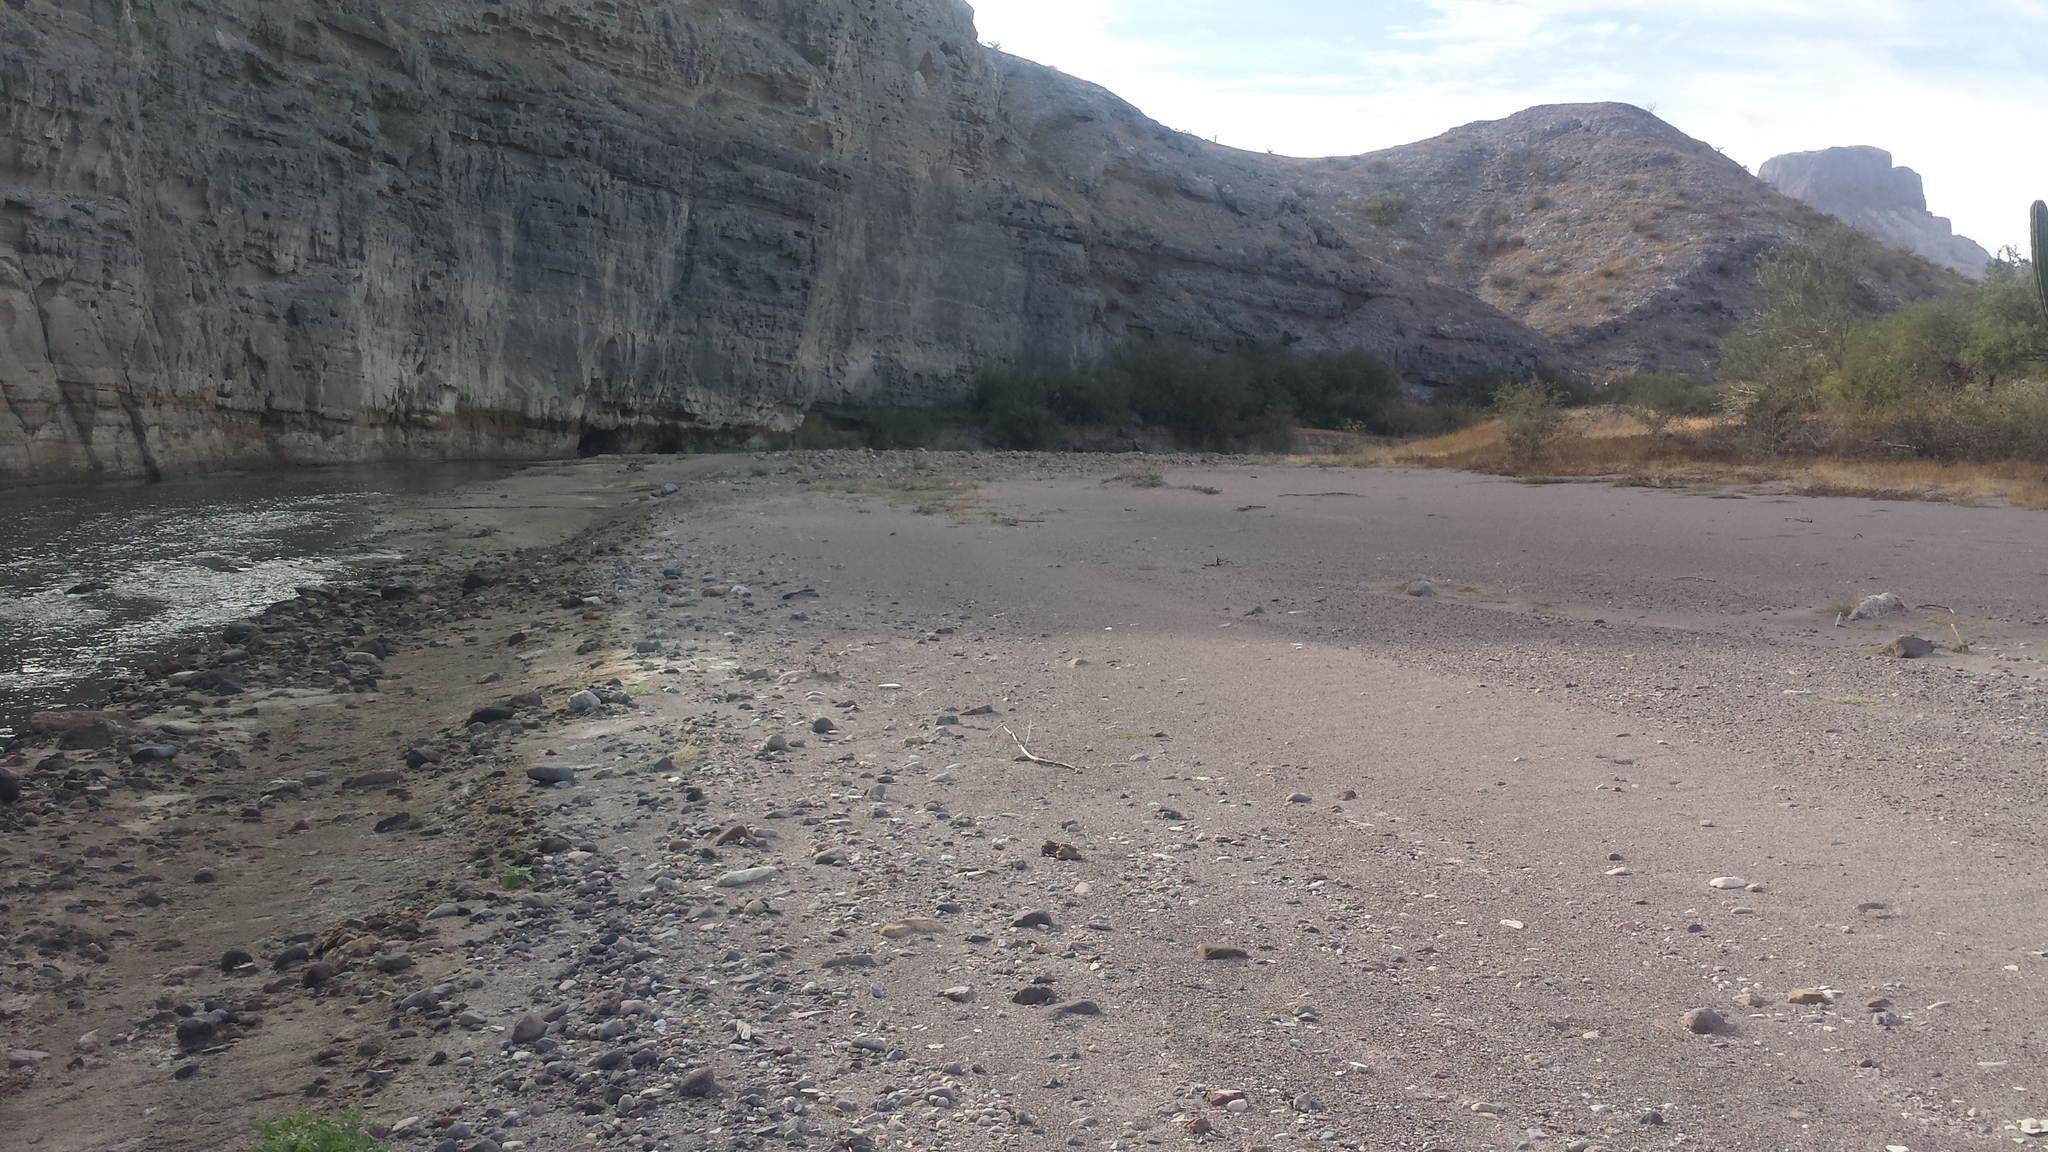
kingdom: Animalia
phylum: Arthropoda
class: Insecta
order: Coleoptera
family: Carabidae
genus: Cicindela
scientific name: Cicindela carthagena
